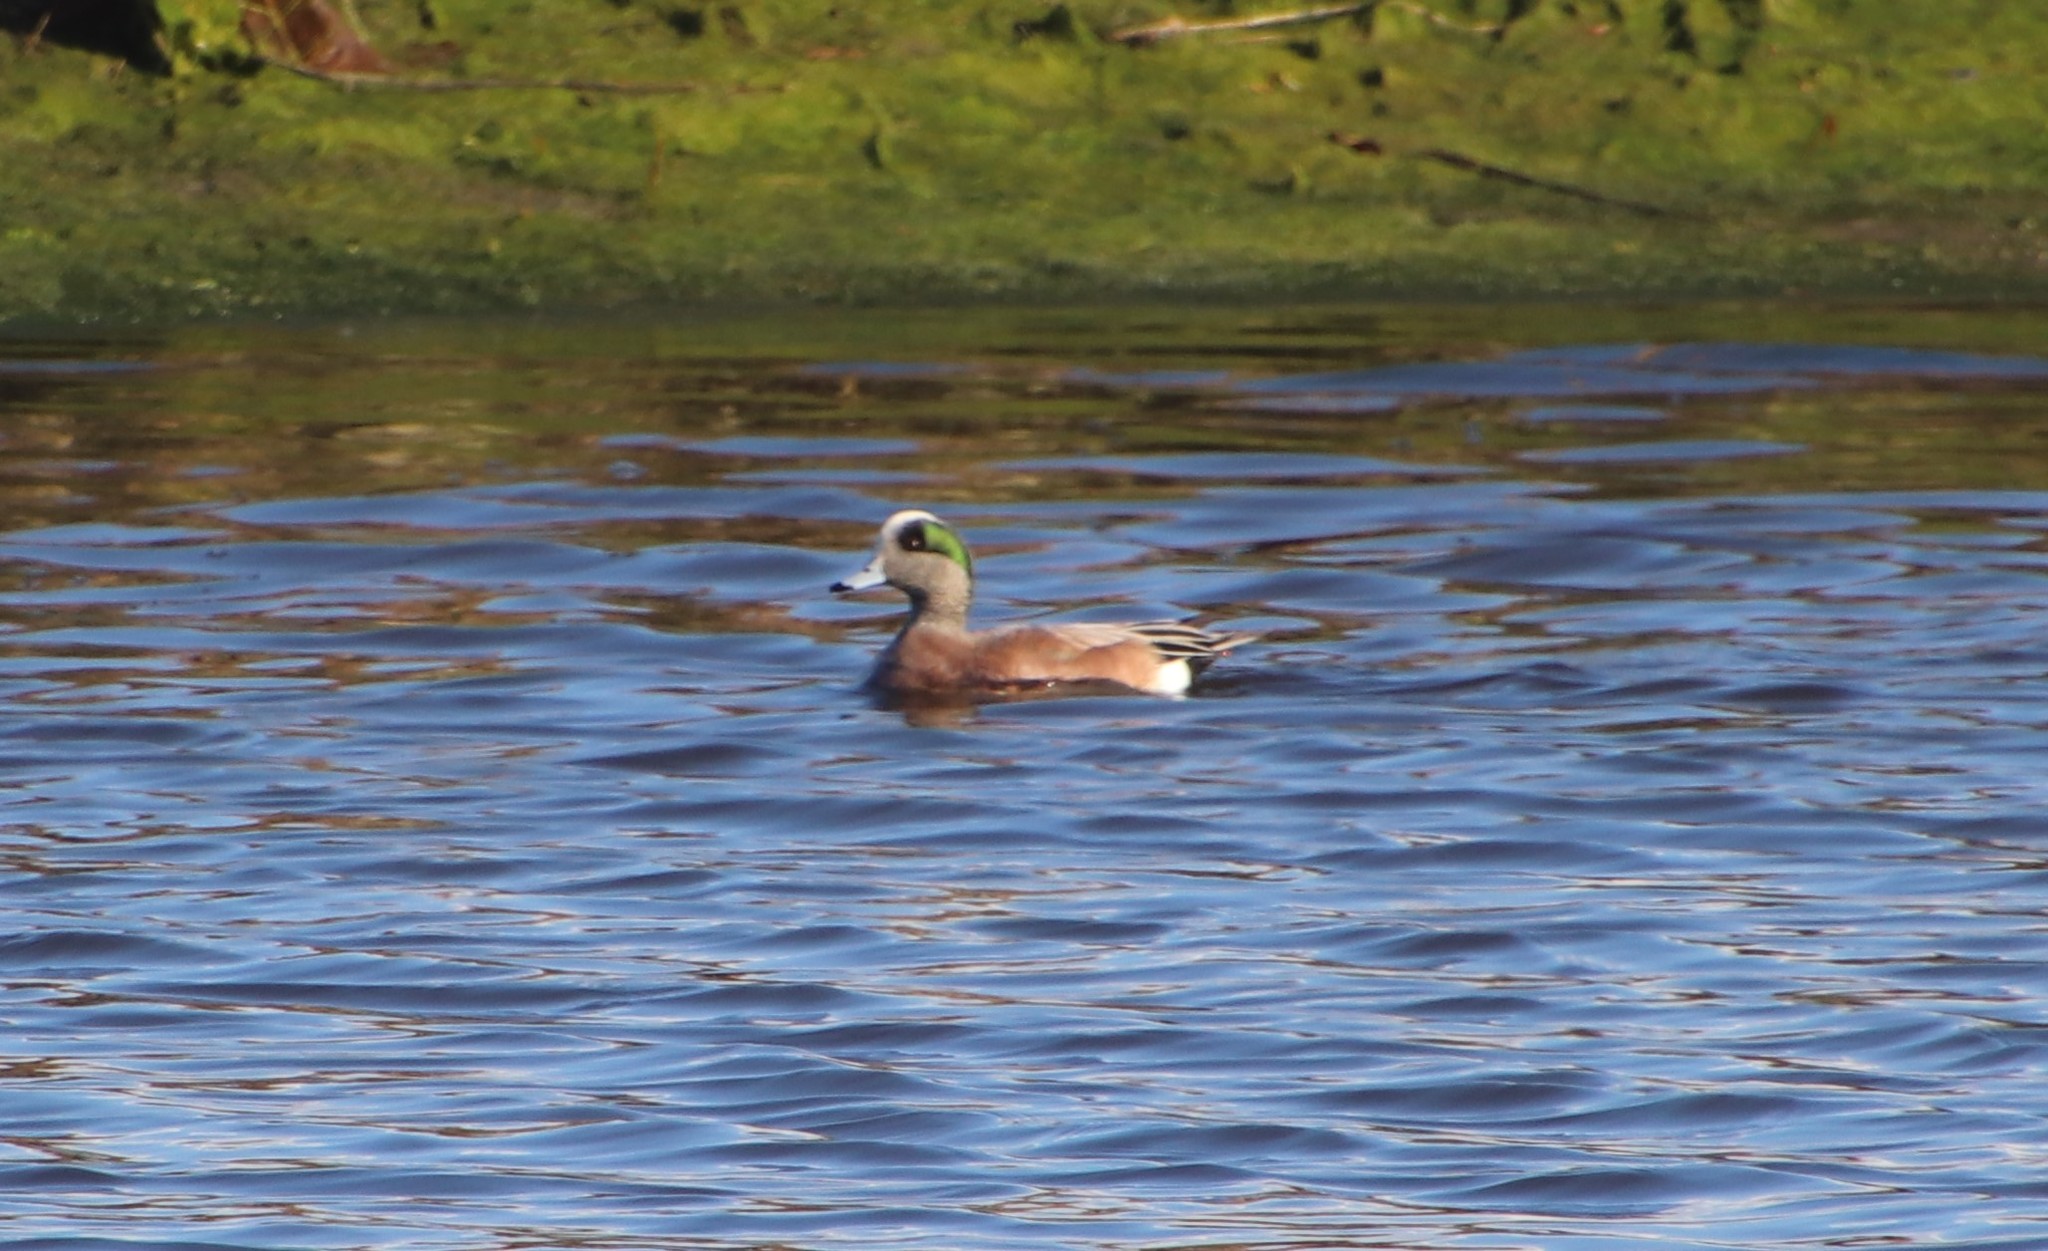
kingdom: Animalia
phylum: Chordata
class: Aves
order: Anseriformes
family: Anatidae
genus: Mareca
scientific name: Mareca americana
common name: American wigeon
